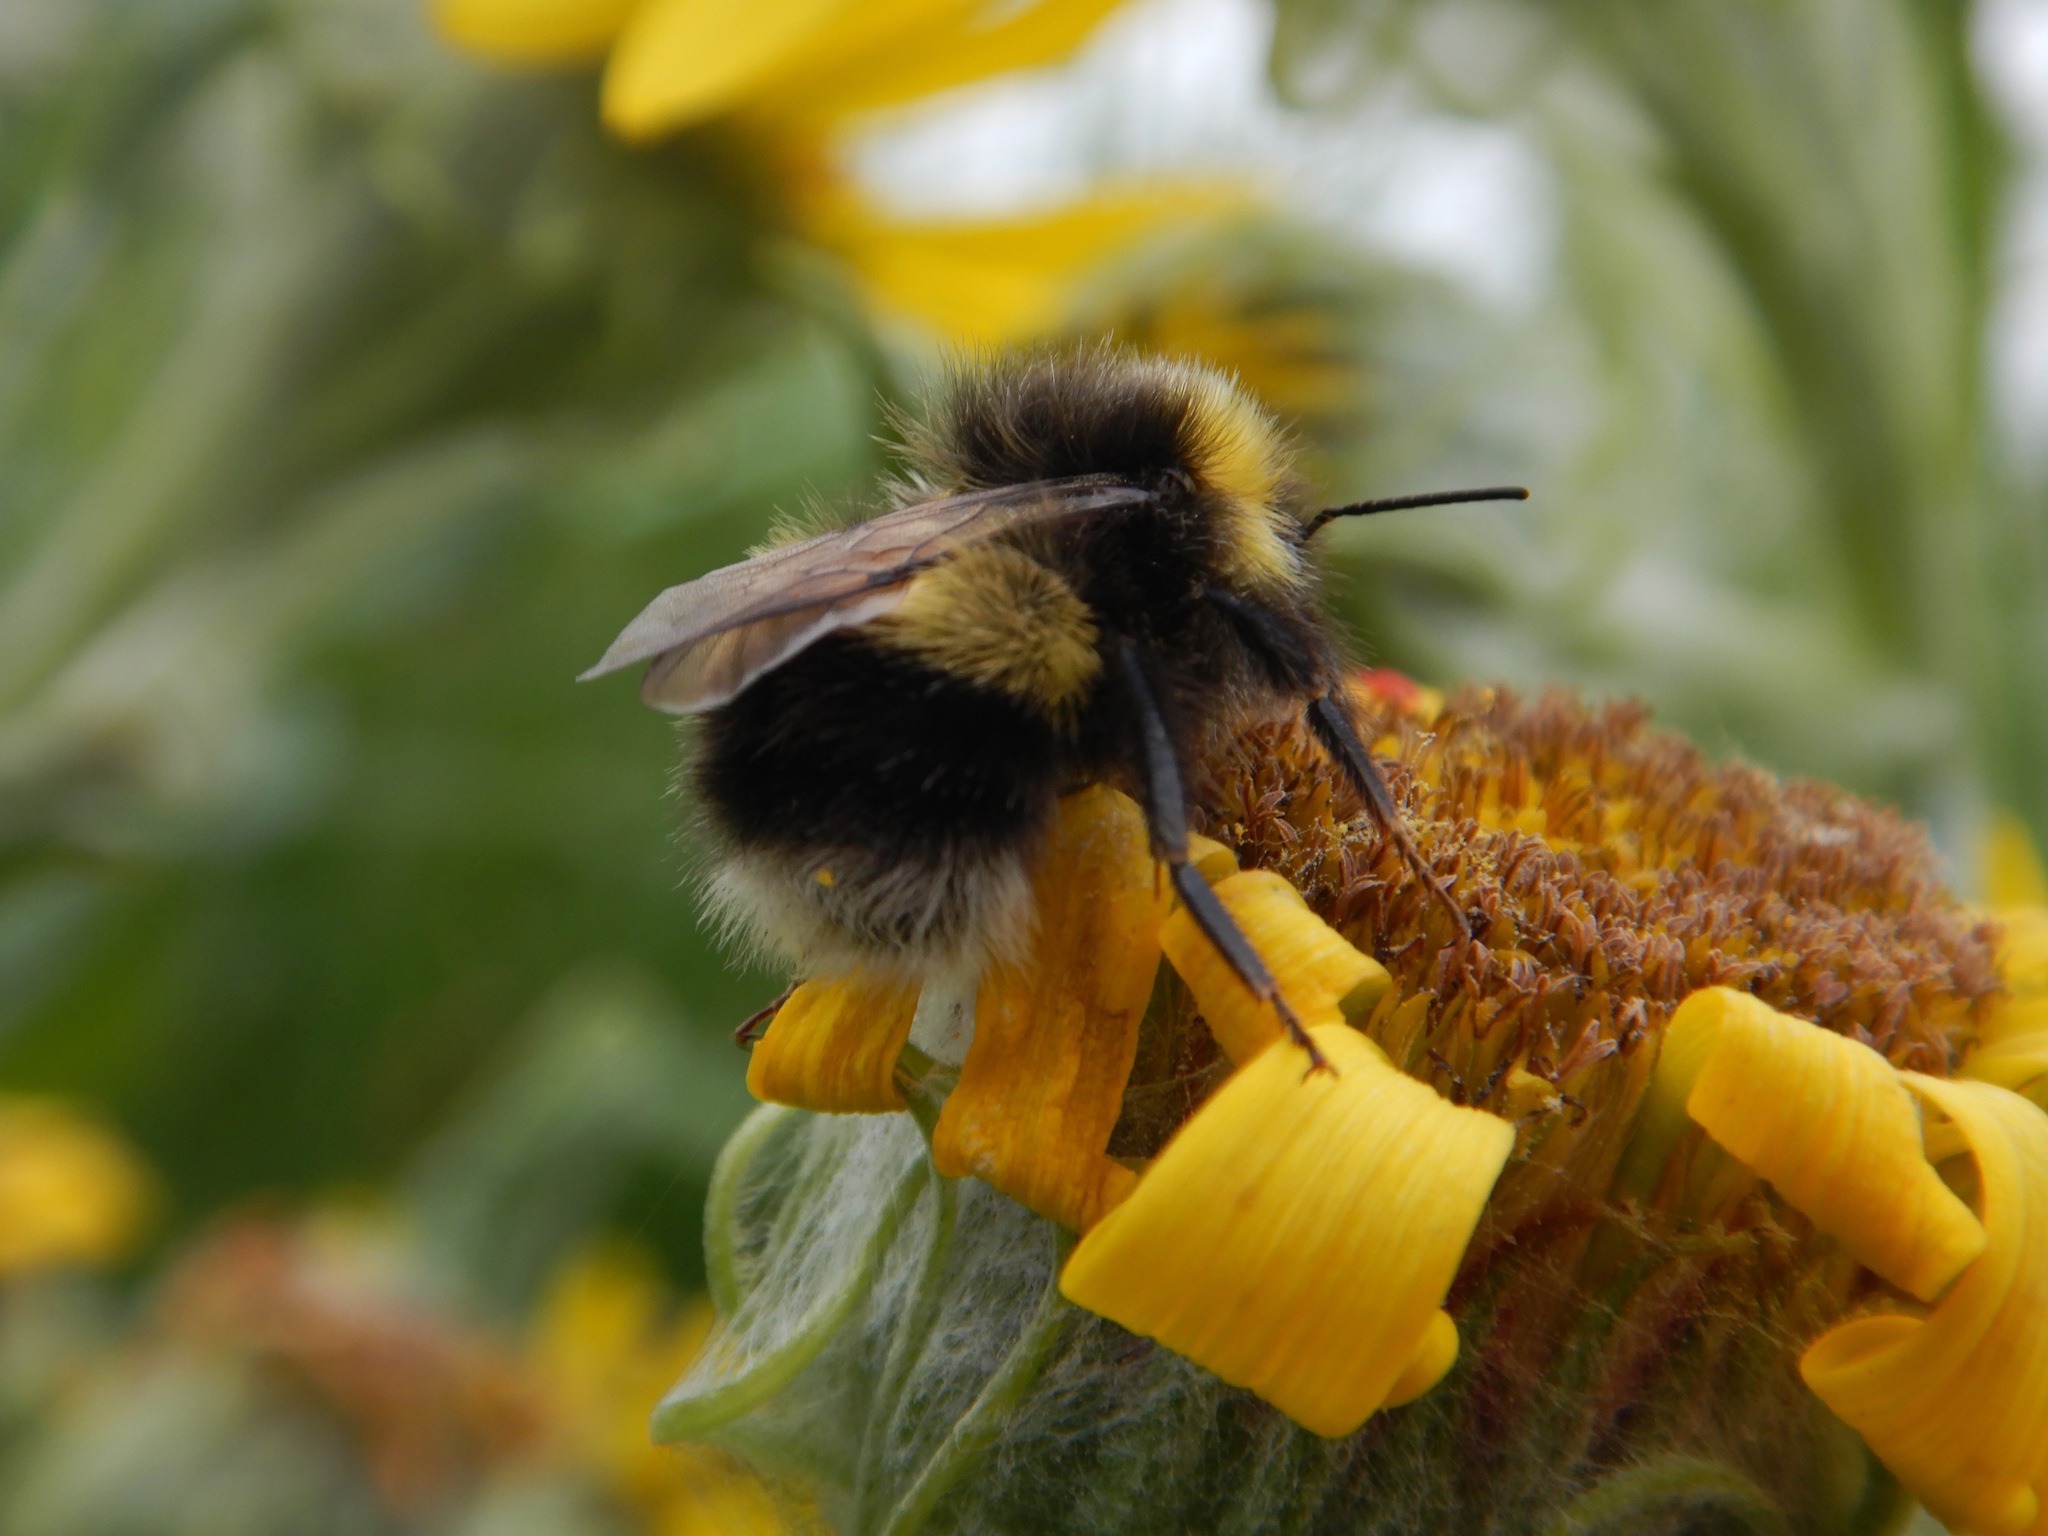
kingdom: Animalia
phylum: Arthropoda
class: Insecta
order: Hymenoptera
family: Apidae
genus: Bombus
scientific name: Bombus cryptarum
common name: Cryptic bumblebee
